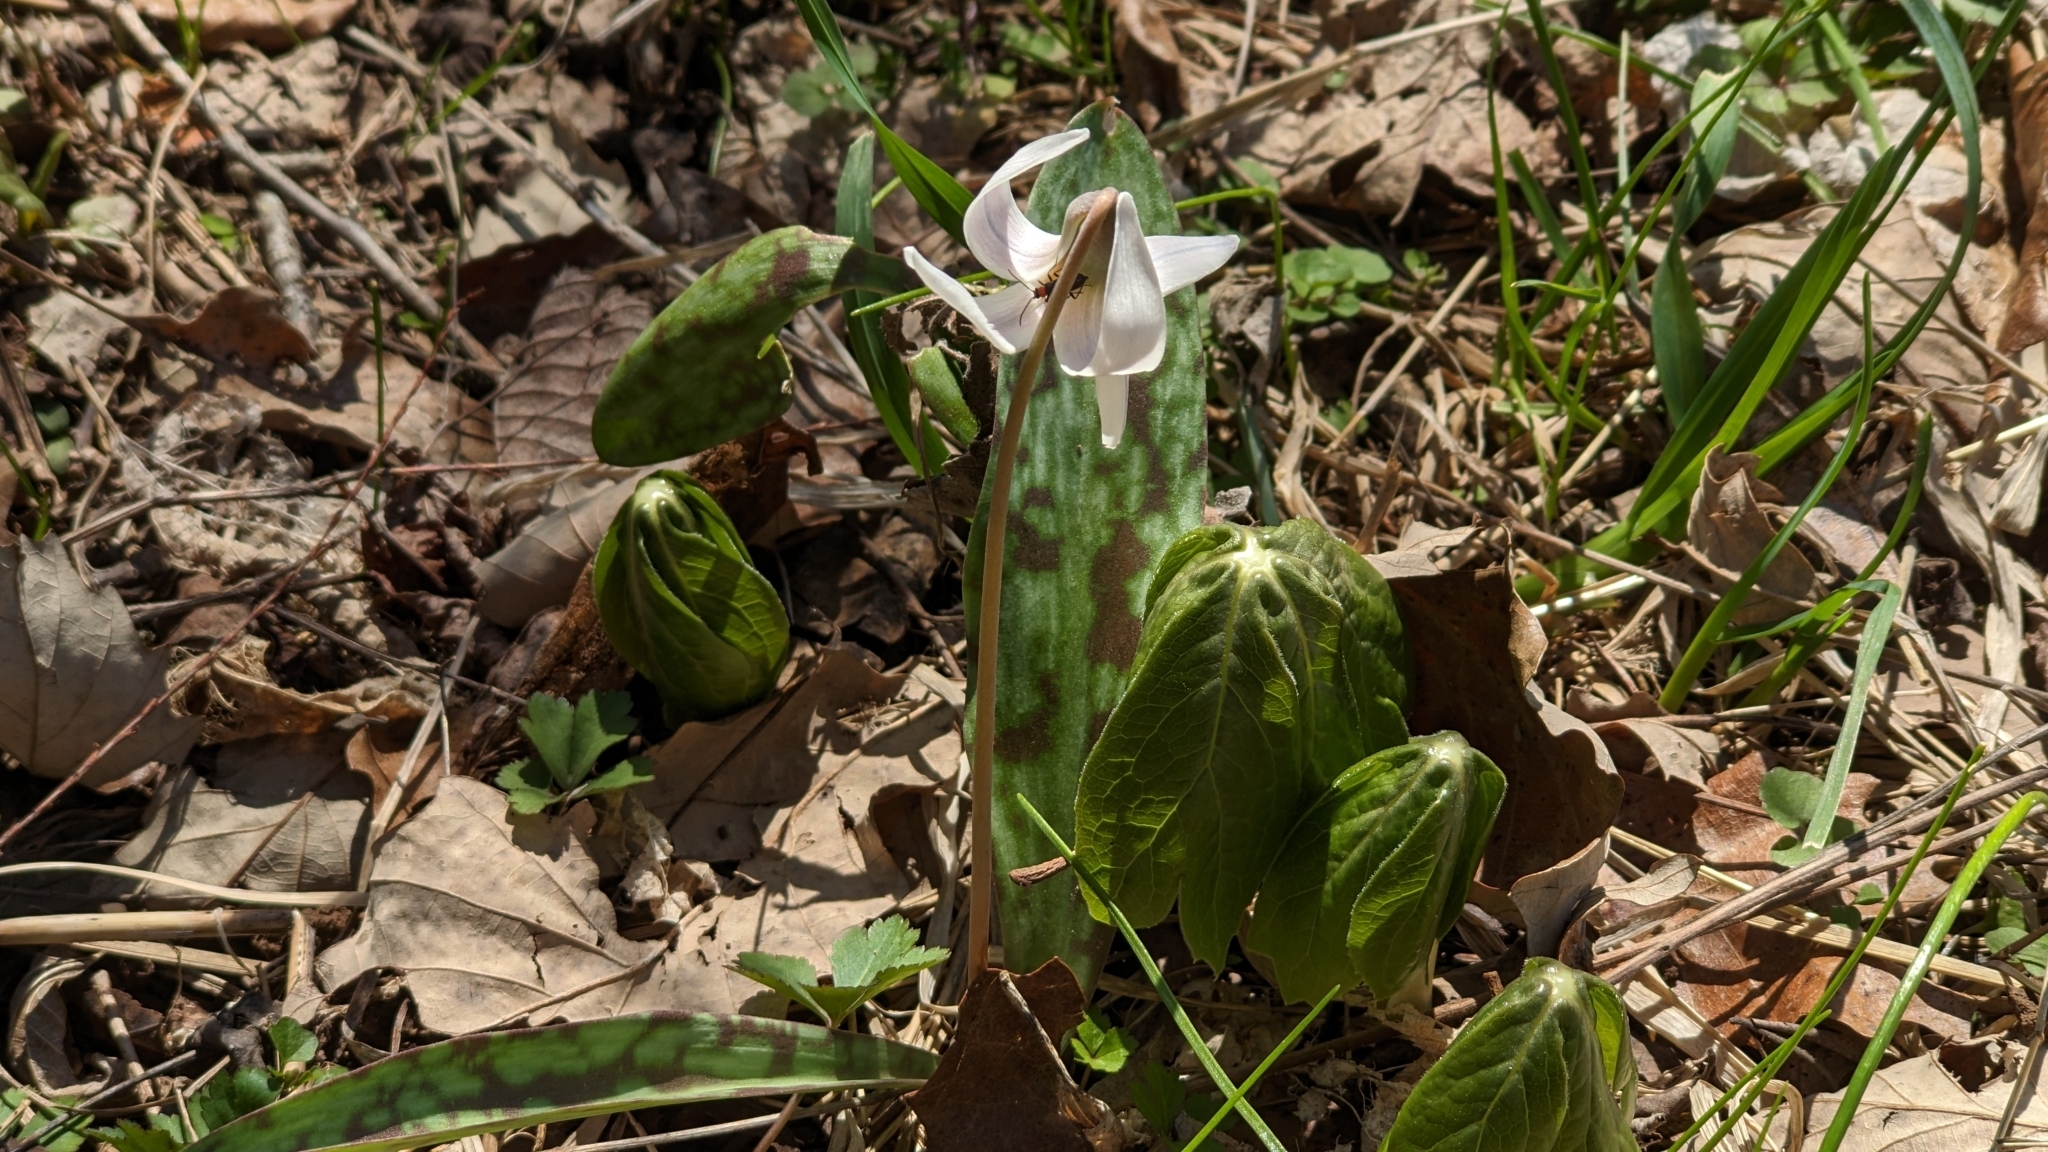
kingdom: Plantae
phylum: Tracheophyta
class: Liliopsida
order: Liliales
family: Liliaceae
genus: Erythronium
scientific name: Erythronium albidum
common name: White trout-lily
